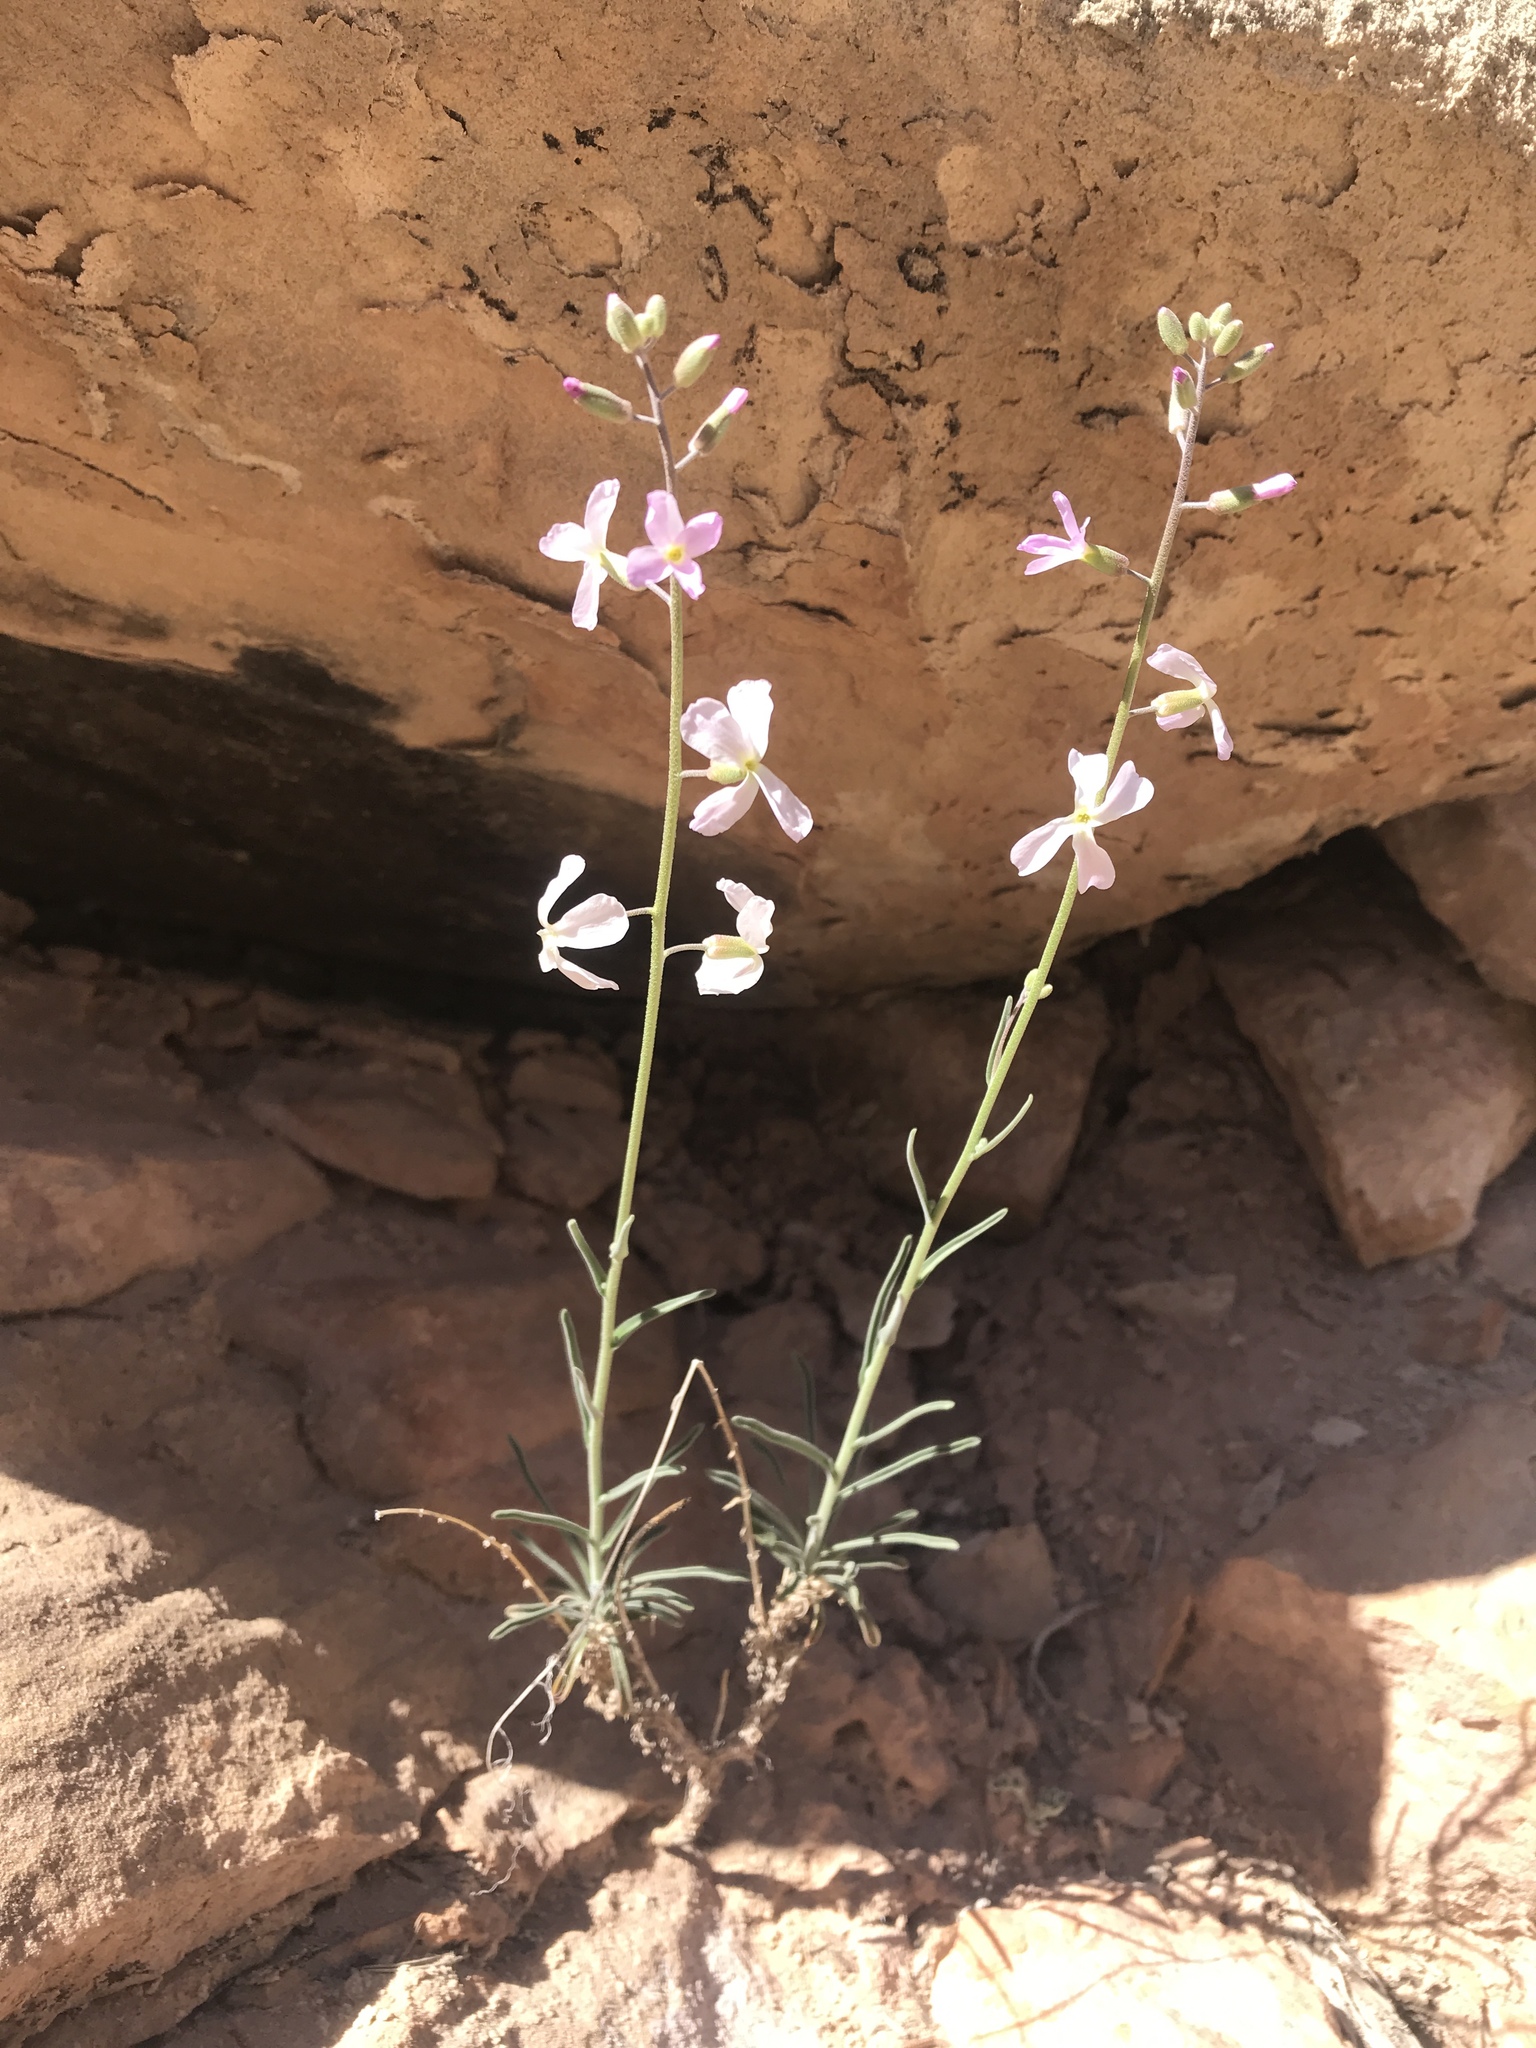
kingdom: Plantae
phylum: Tracheophyta
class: Magnoliopsida
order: Brassicales
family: Brassicaceae
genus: Boechera
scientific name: Boechera formosa
